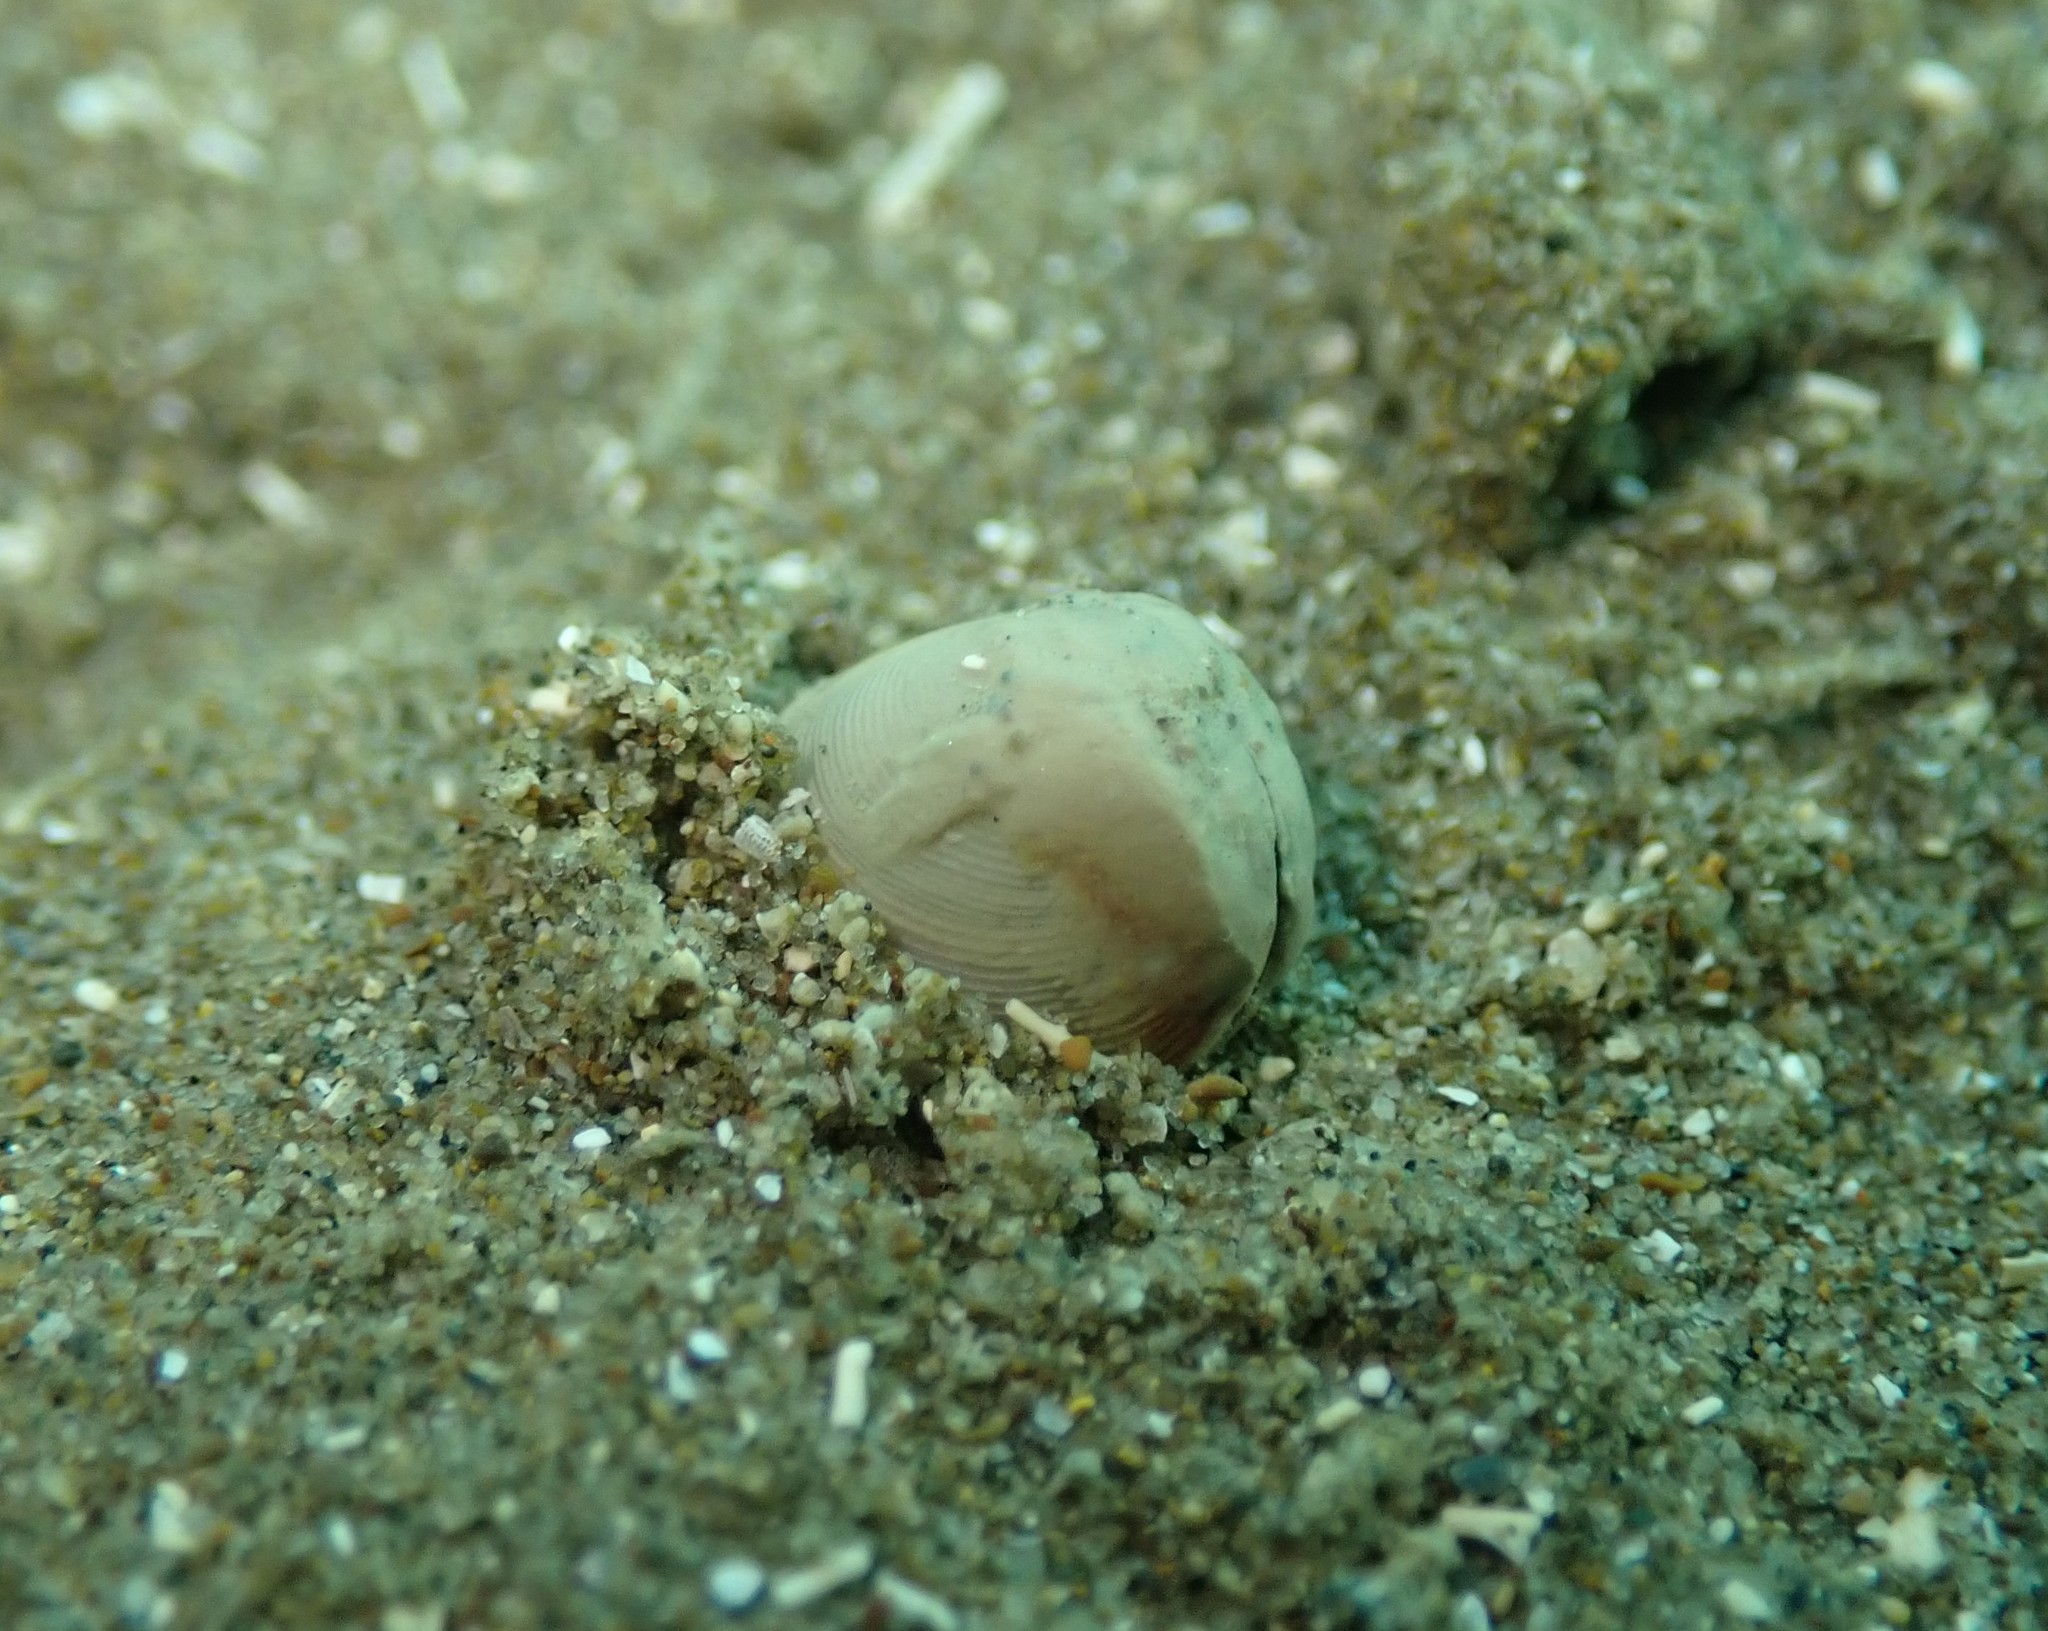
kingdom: Animalia
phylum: Mollusca
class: Bivalvia
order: Nuculida
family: Nuculidae
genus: Linucula
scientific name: Linucula hartvigiana
